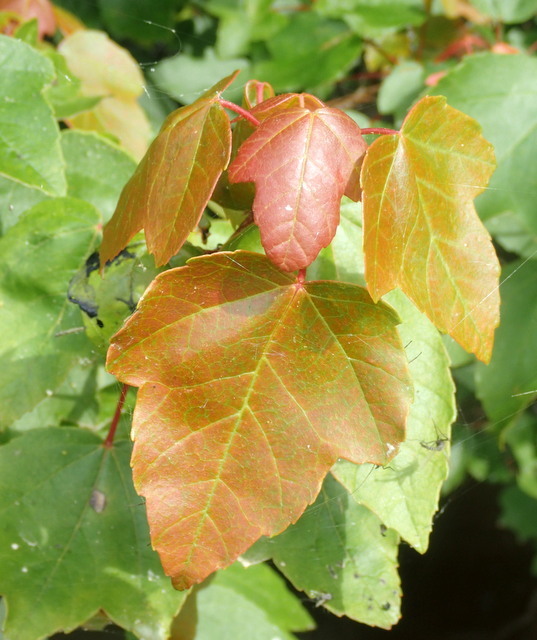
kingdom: Plantae
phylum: Tracheophyta
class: Magnoliopsida
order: Sapindales
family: Sapindaceae
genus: Acer
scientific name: Acer rubrum
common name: Red maple
